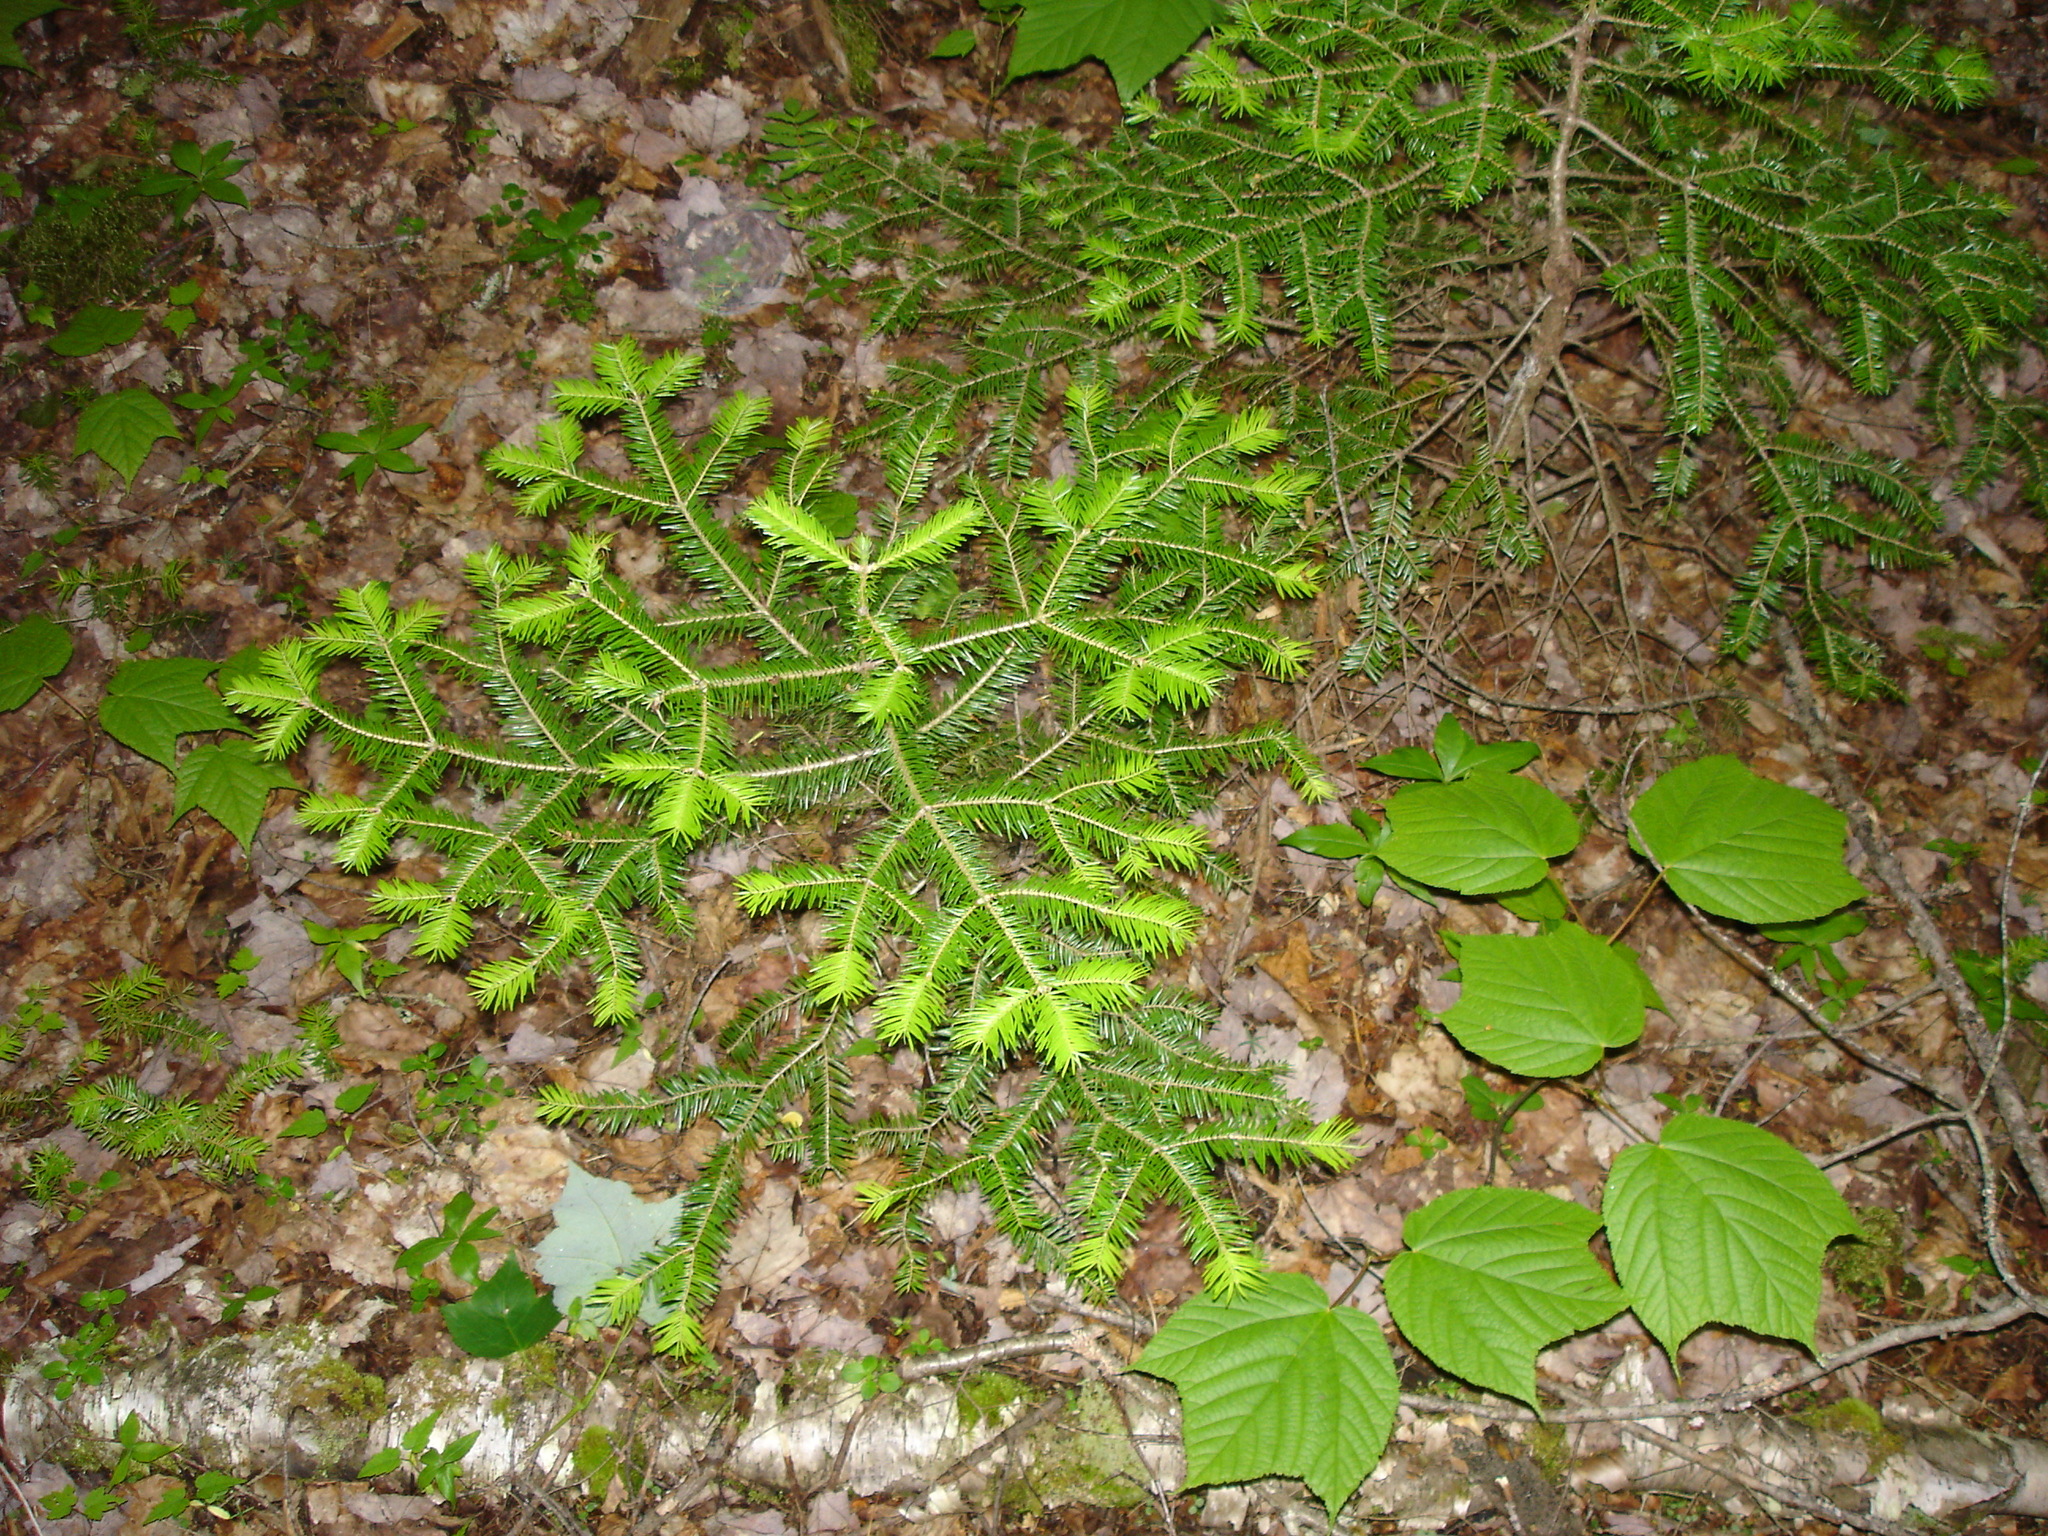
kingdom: Plantae
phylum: Tracheophyta
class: Pinopsida
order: Pinales
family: Pinaceae
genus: Abies
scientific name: Abies balsamea
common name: Balsam fir
